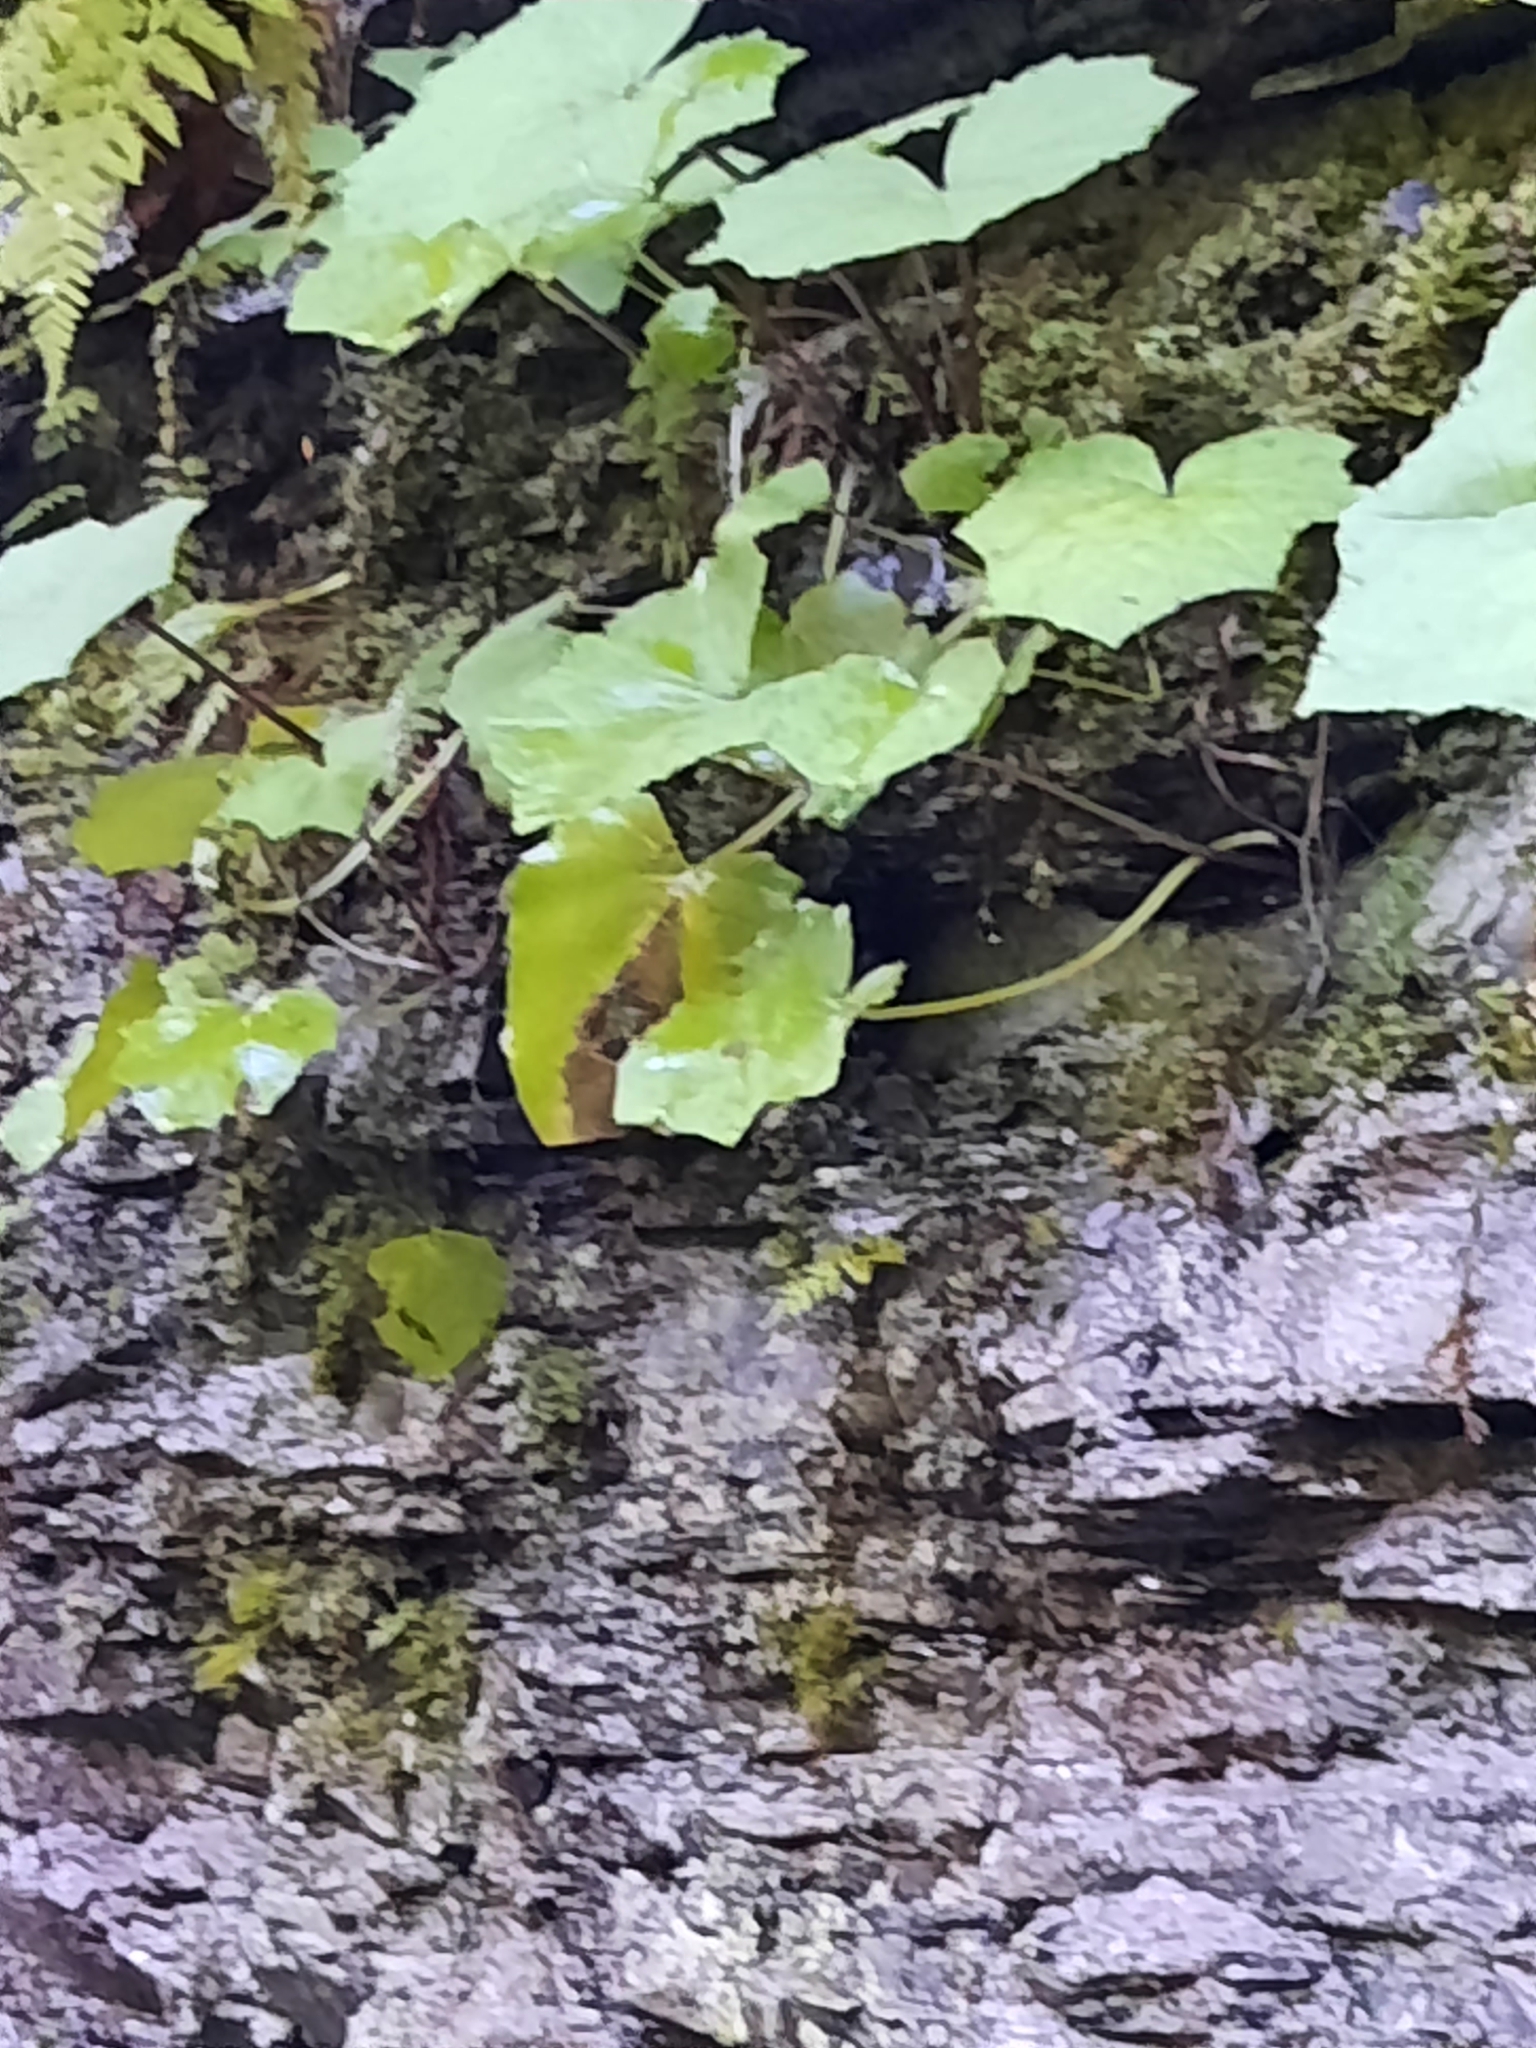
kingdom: Plantae
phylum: Tracheophyta
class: Magnoliopsida
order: Asterales
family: Asteraceae
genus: Tussilago
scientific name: Tussilago farfara
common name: Coltsfoot
